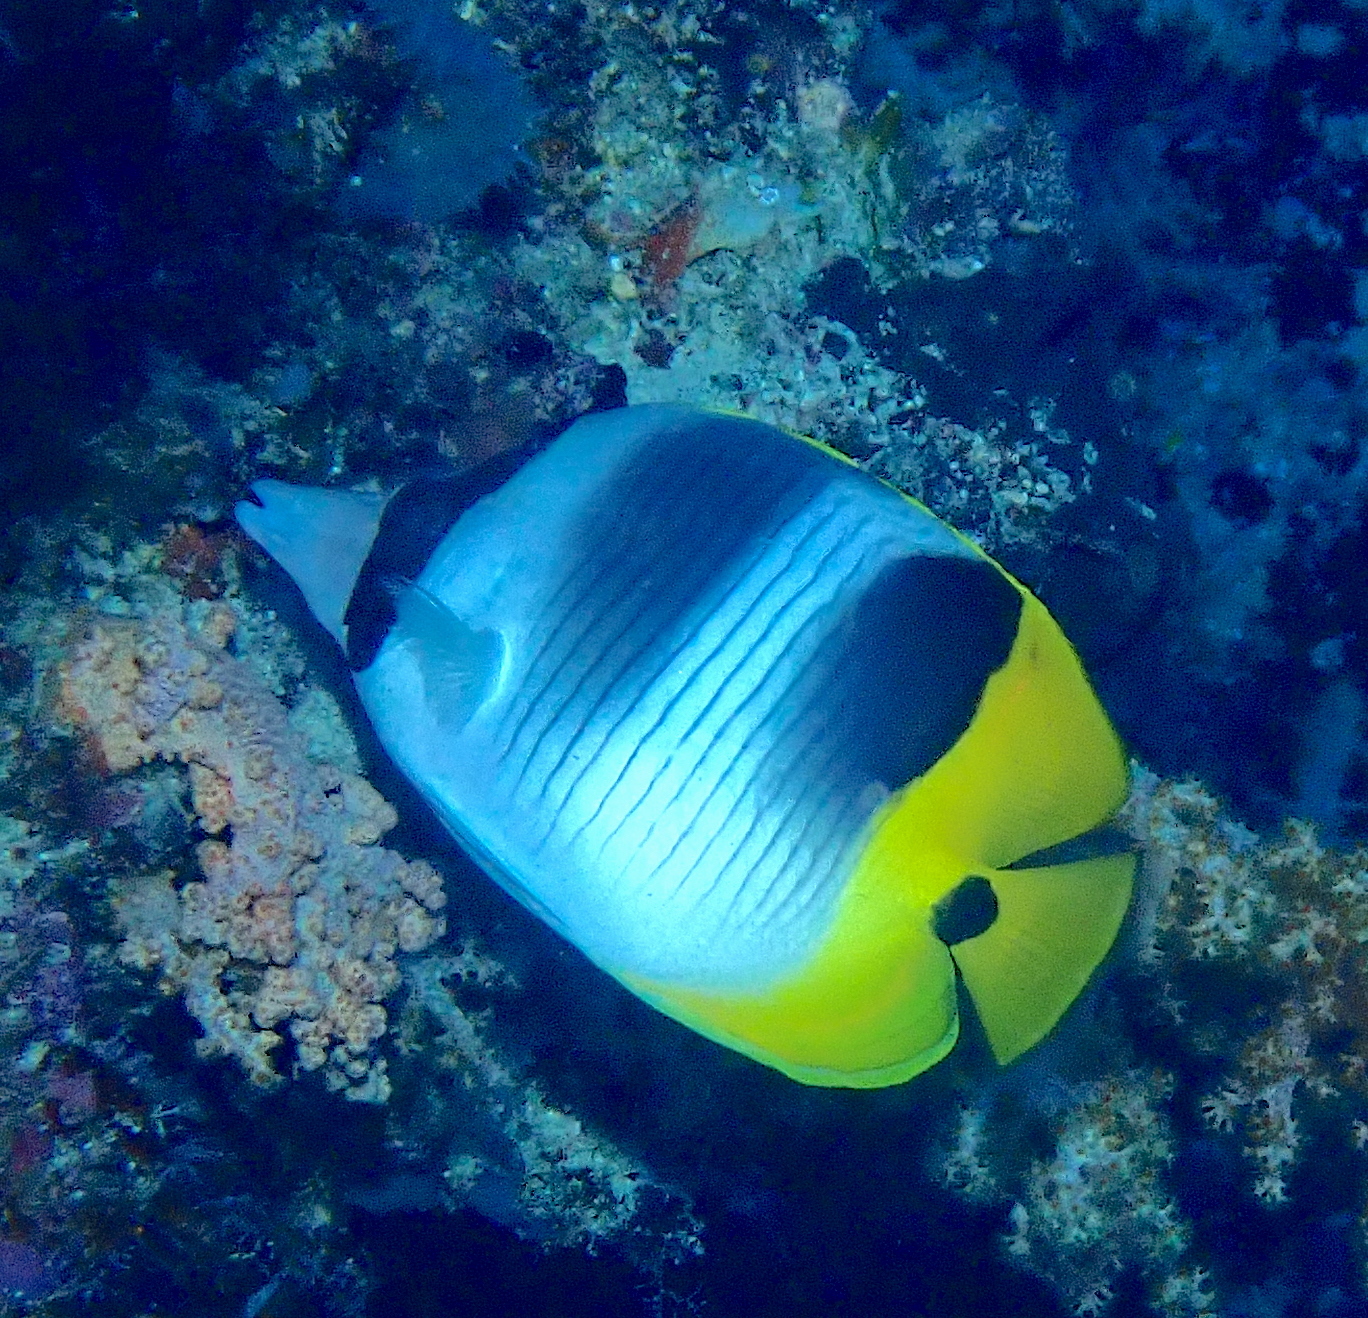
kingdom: Animalia
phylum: Chordata
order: Perciformes
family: Chaetodontidae
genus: Chaetodon
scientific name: Chaetodon ulietensis
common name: Pacific double-saddle butterflyfish
